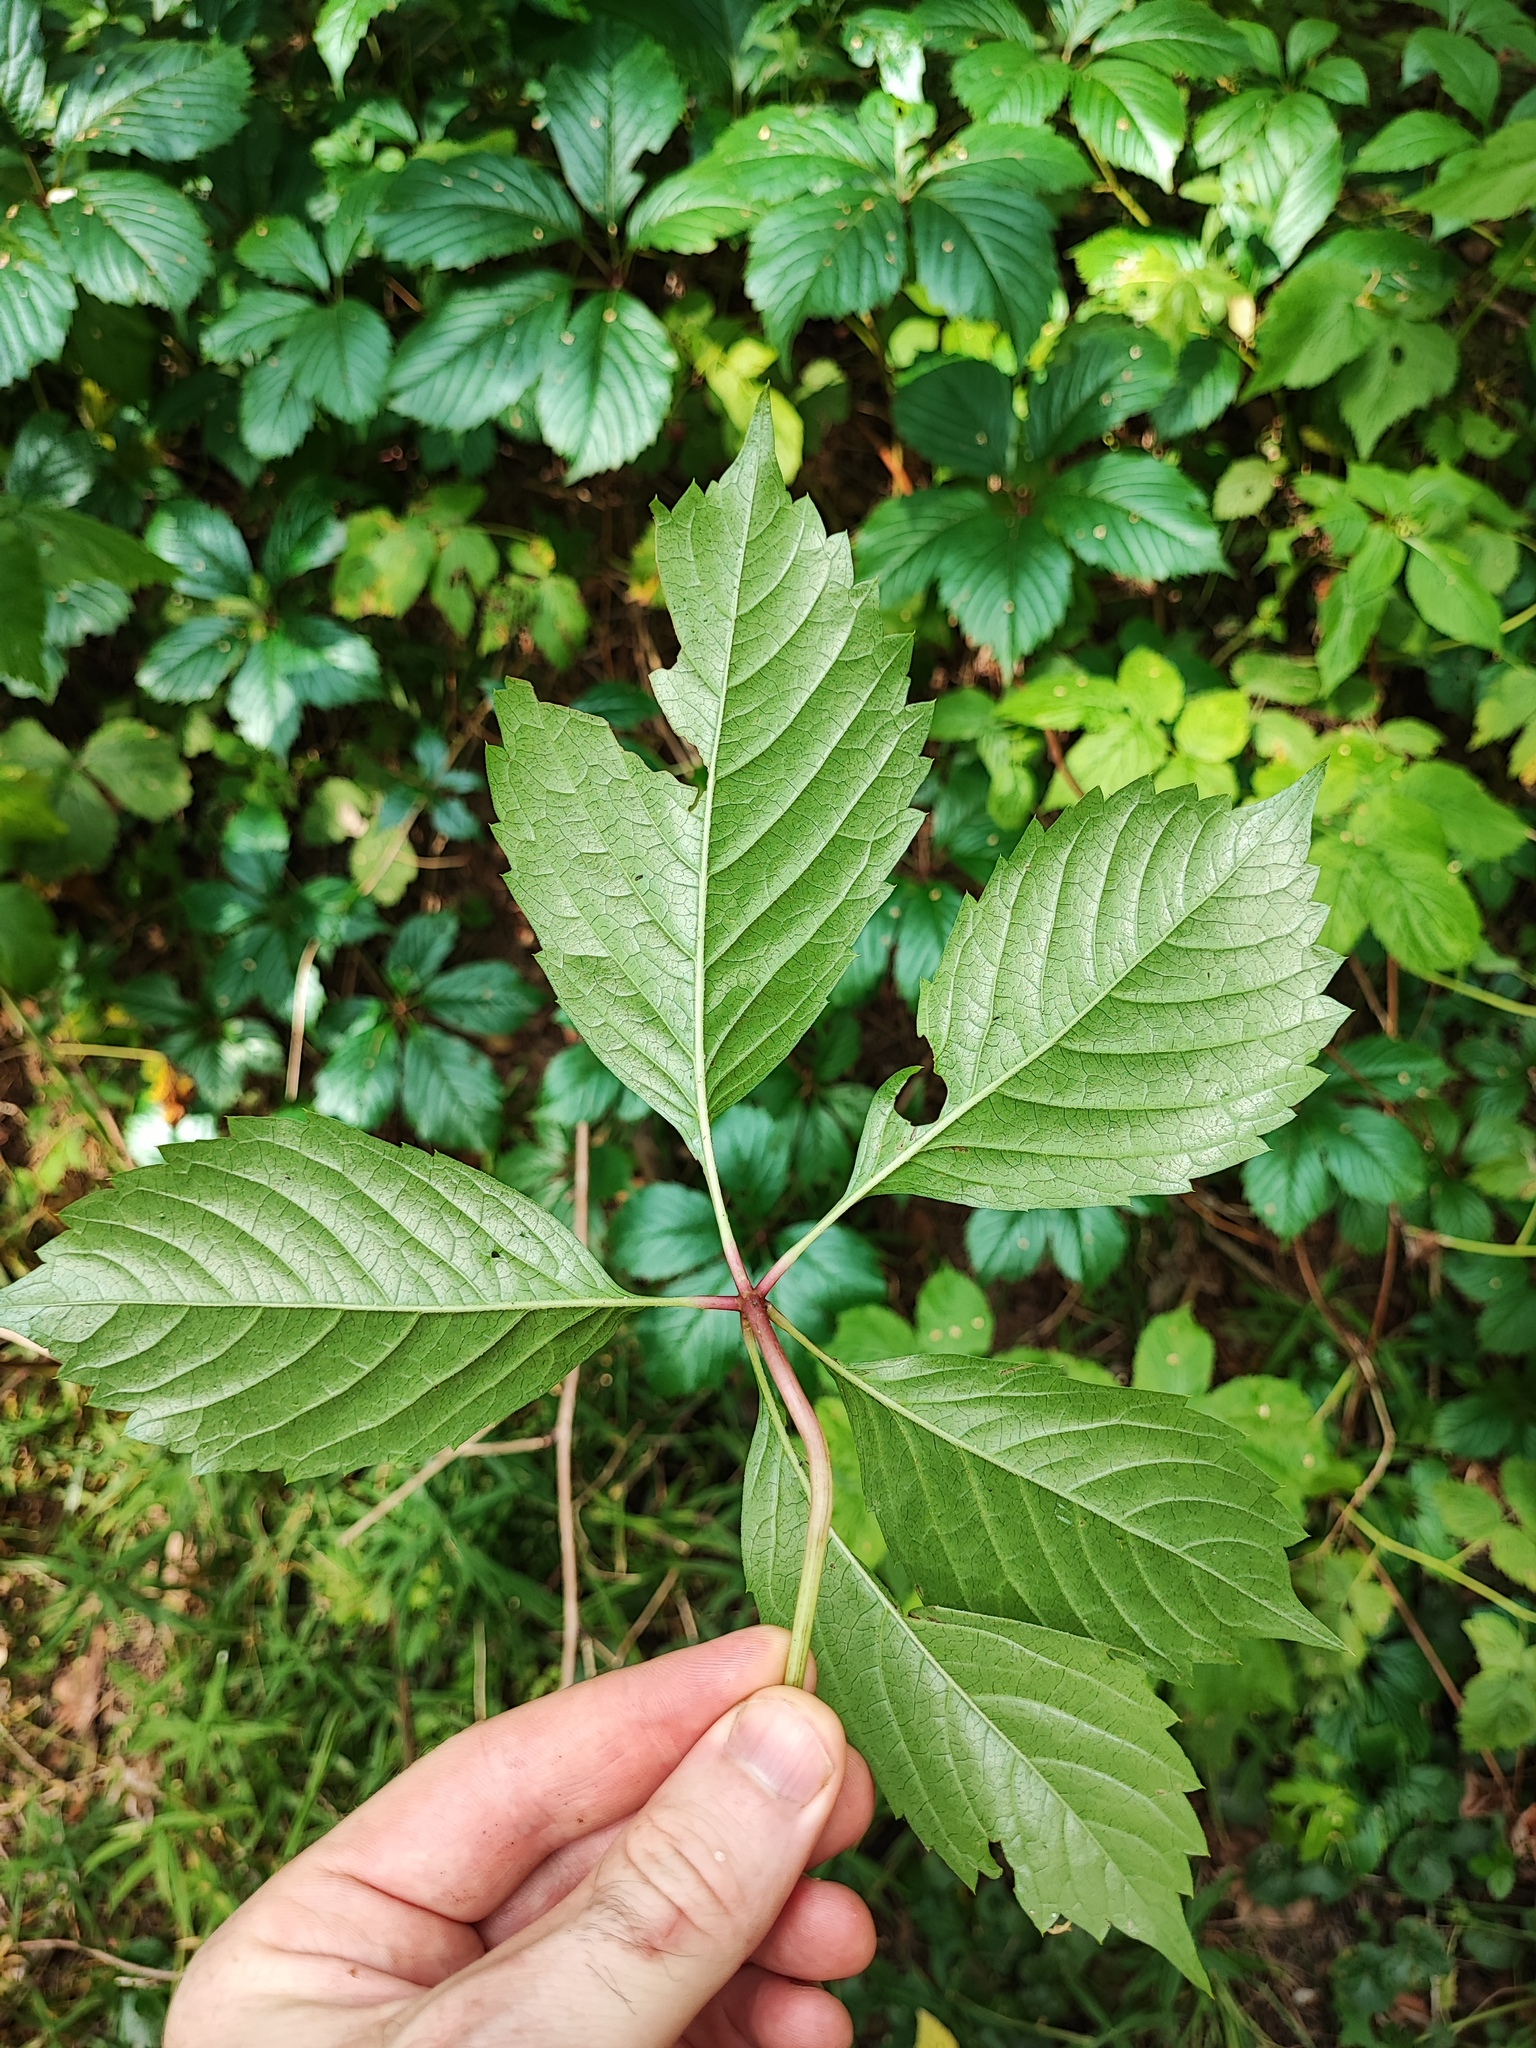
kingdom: Plantae
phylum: Tracheophyta
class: Magnoliopsida
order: Vitales
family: Vitaceae
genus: Parthenocissus
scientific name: Parthenocissus inserta
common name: False virginia-creeper
